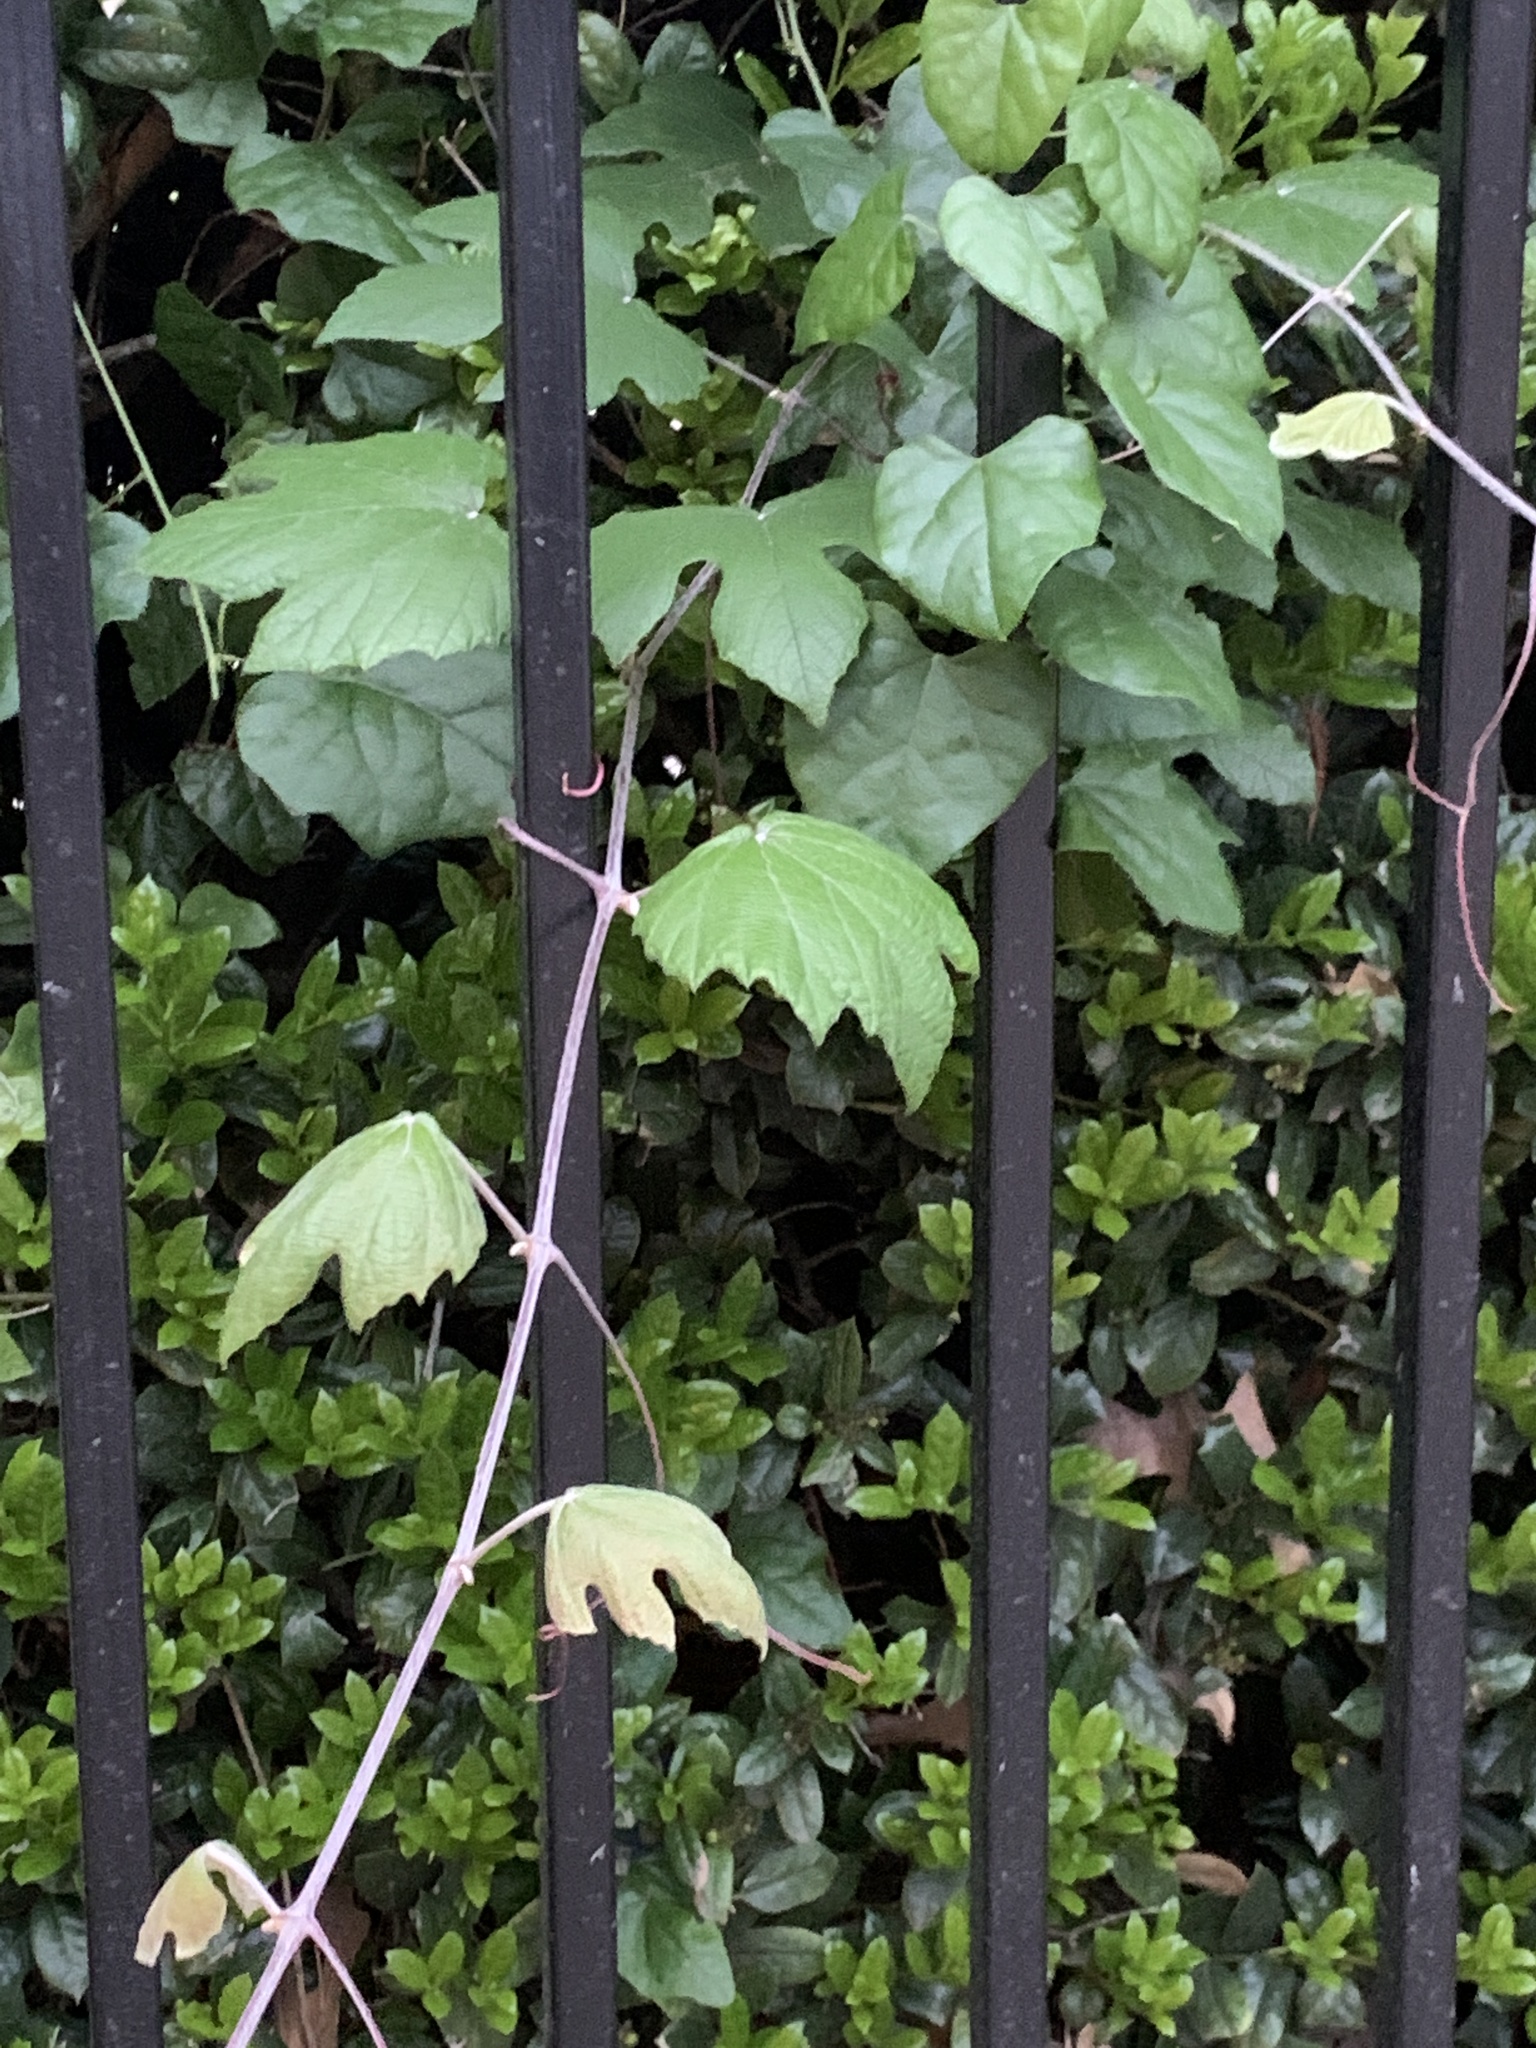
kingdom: Plantae
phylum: Tracheophyta
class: Magnoliopsida
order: Vitales
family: Vitaceae
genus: Vitis
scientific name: Vitis mustangensis
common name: Mustang grape
